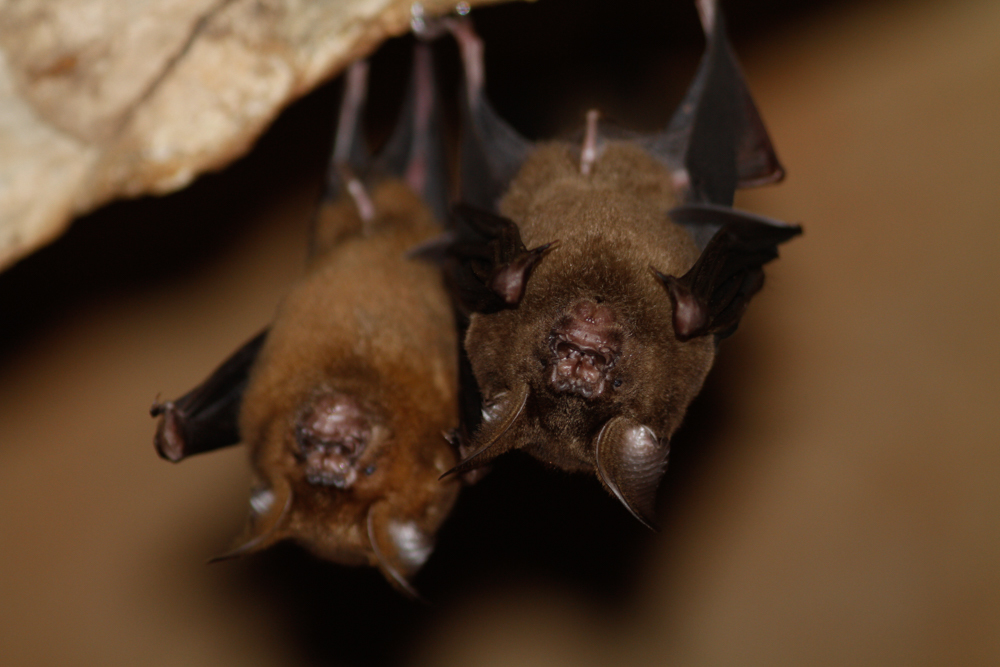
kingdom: Animalia
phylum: Chordata
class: Mammalia
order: Chiroptera
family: Hipposideridae
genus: Hipposideros
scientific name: Hipposideros armiger
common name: Great leaf-nosed bat
